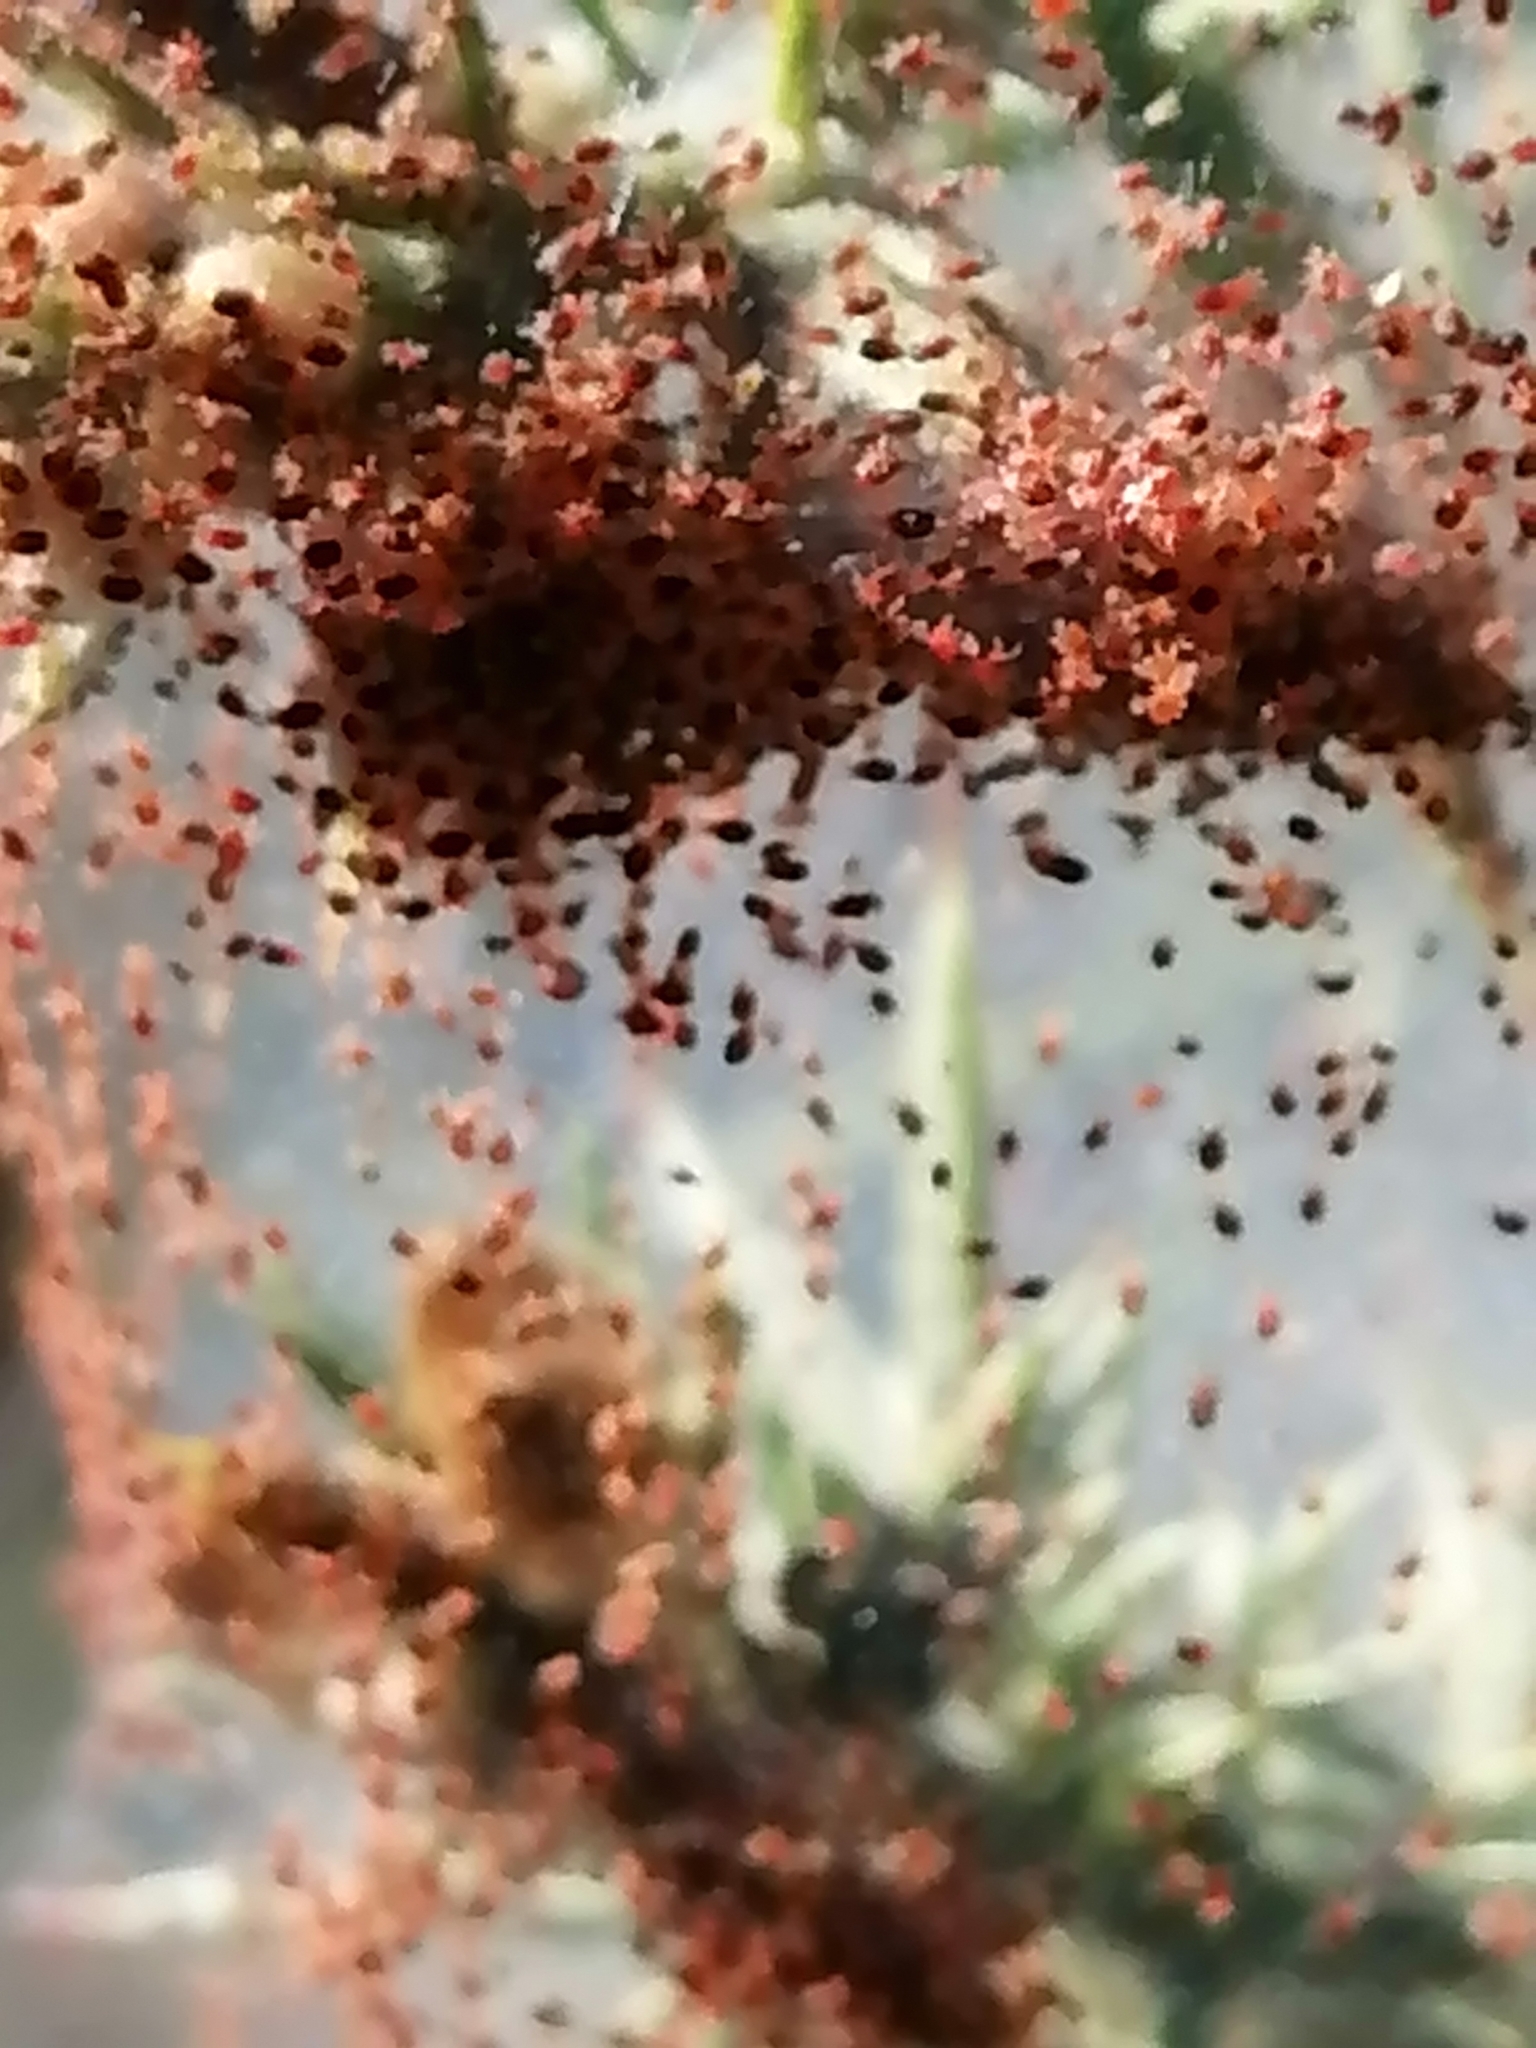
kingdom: Animalia
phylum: Arthropoda
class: Arachnida
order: Trombidiformes
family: Tetranychidae
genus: Tetranychus
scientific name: Tetranychus lintearius
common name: Gorse spider mite
